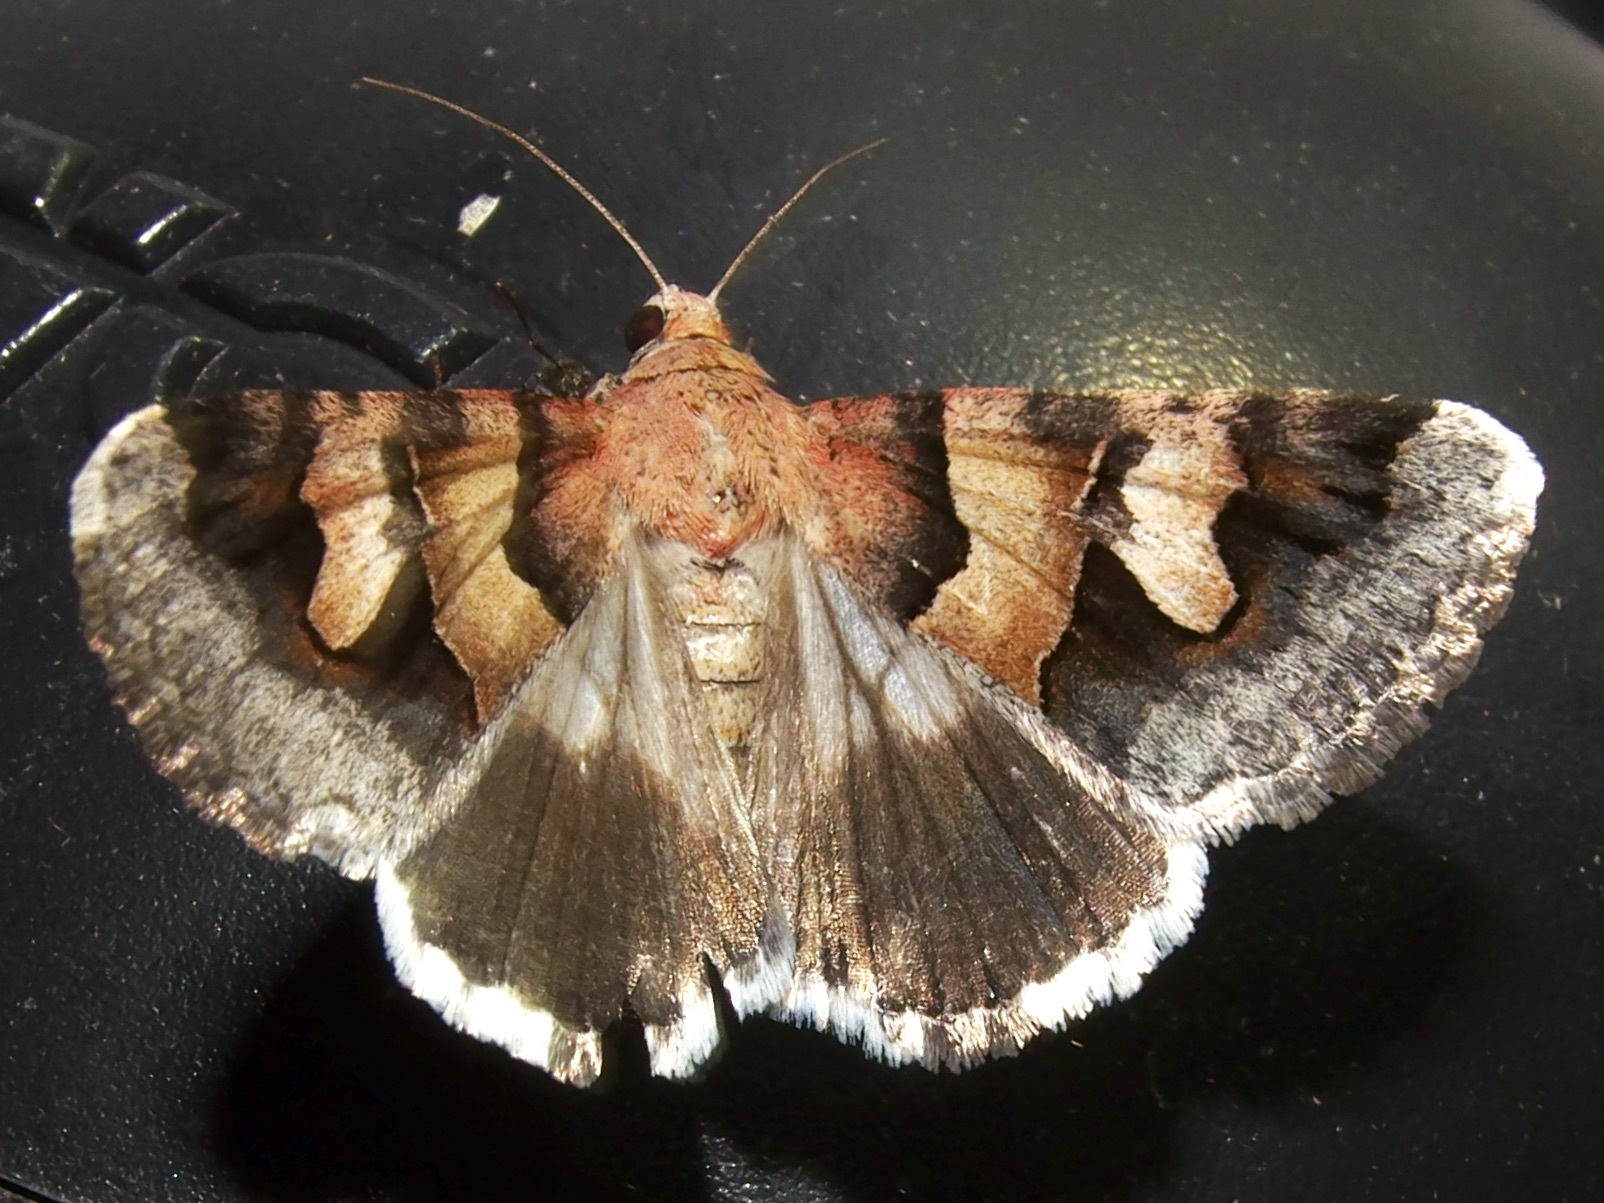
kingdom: Animalia
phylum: Arthropoda
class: Insecta
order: Lepidoptera
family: Erebidae
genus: Drasteria
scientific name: Drasteria pallescens
